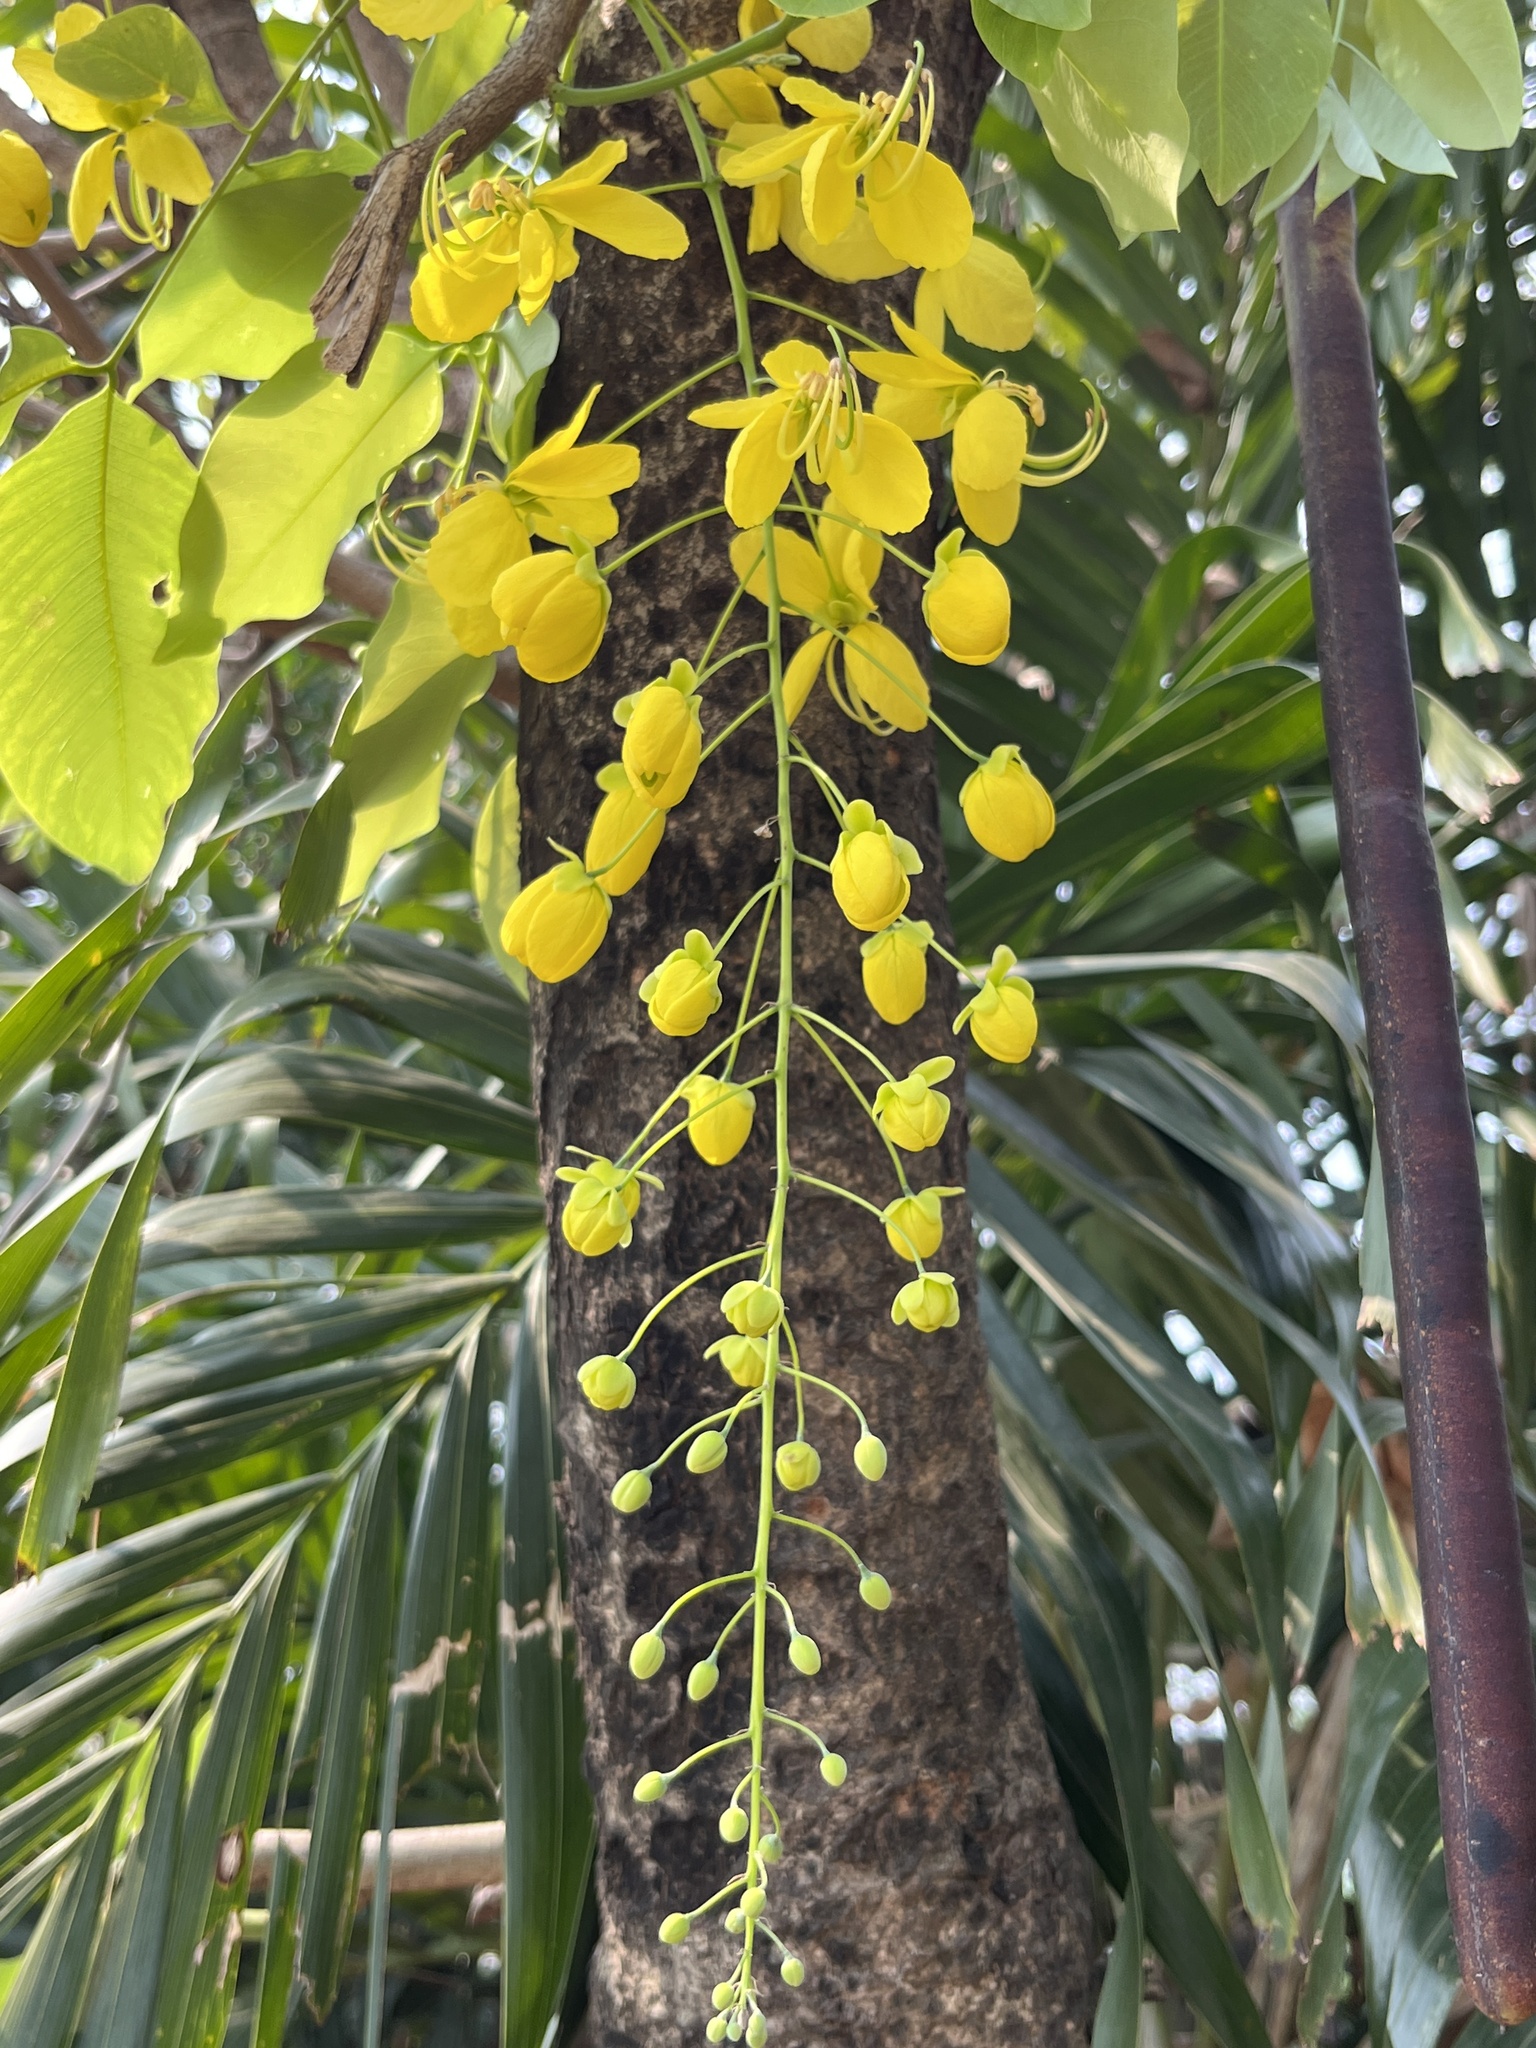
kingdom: Plantae
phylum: Tracheophyta
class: Magnoliopsida
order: Fabales
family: Fabaceae
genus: Cassia
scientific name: Cassia fistula
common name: Golden shower
